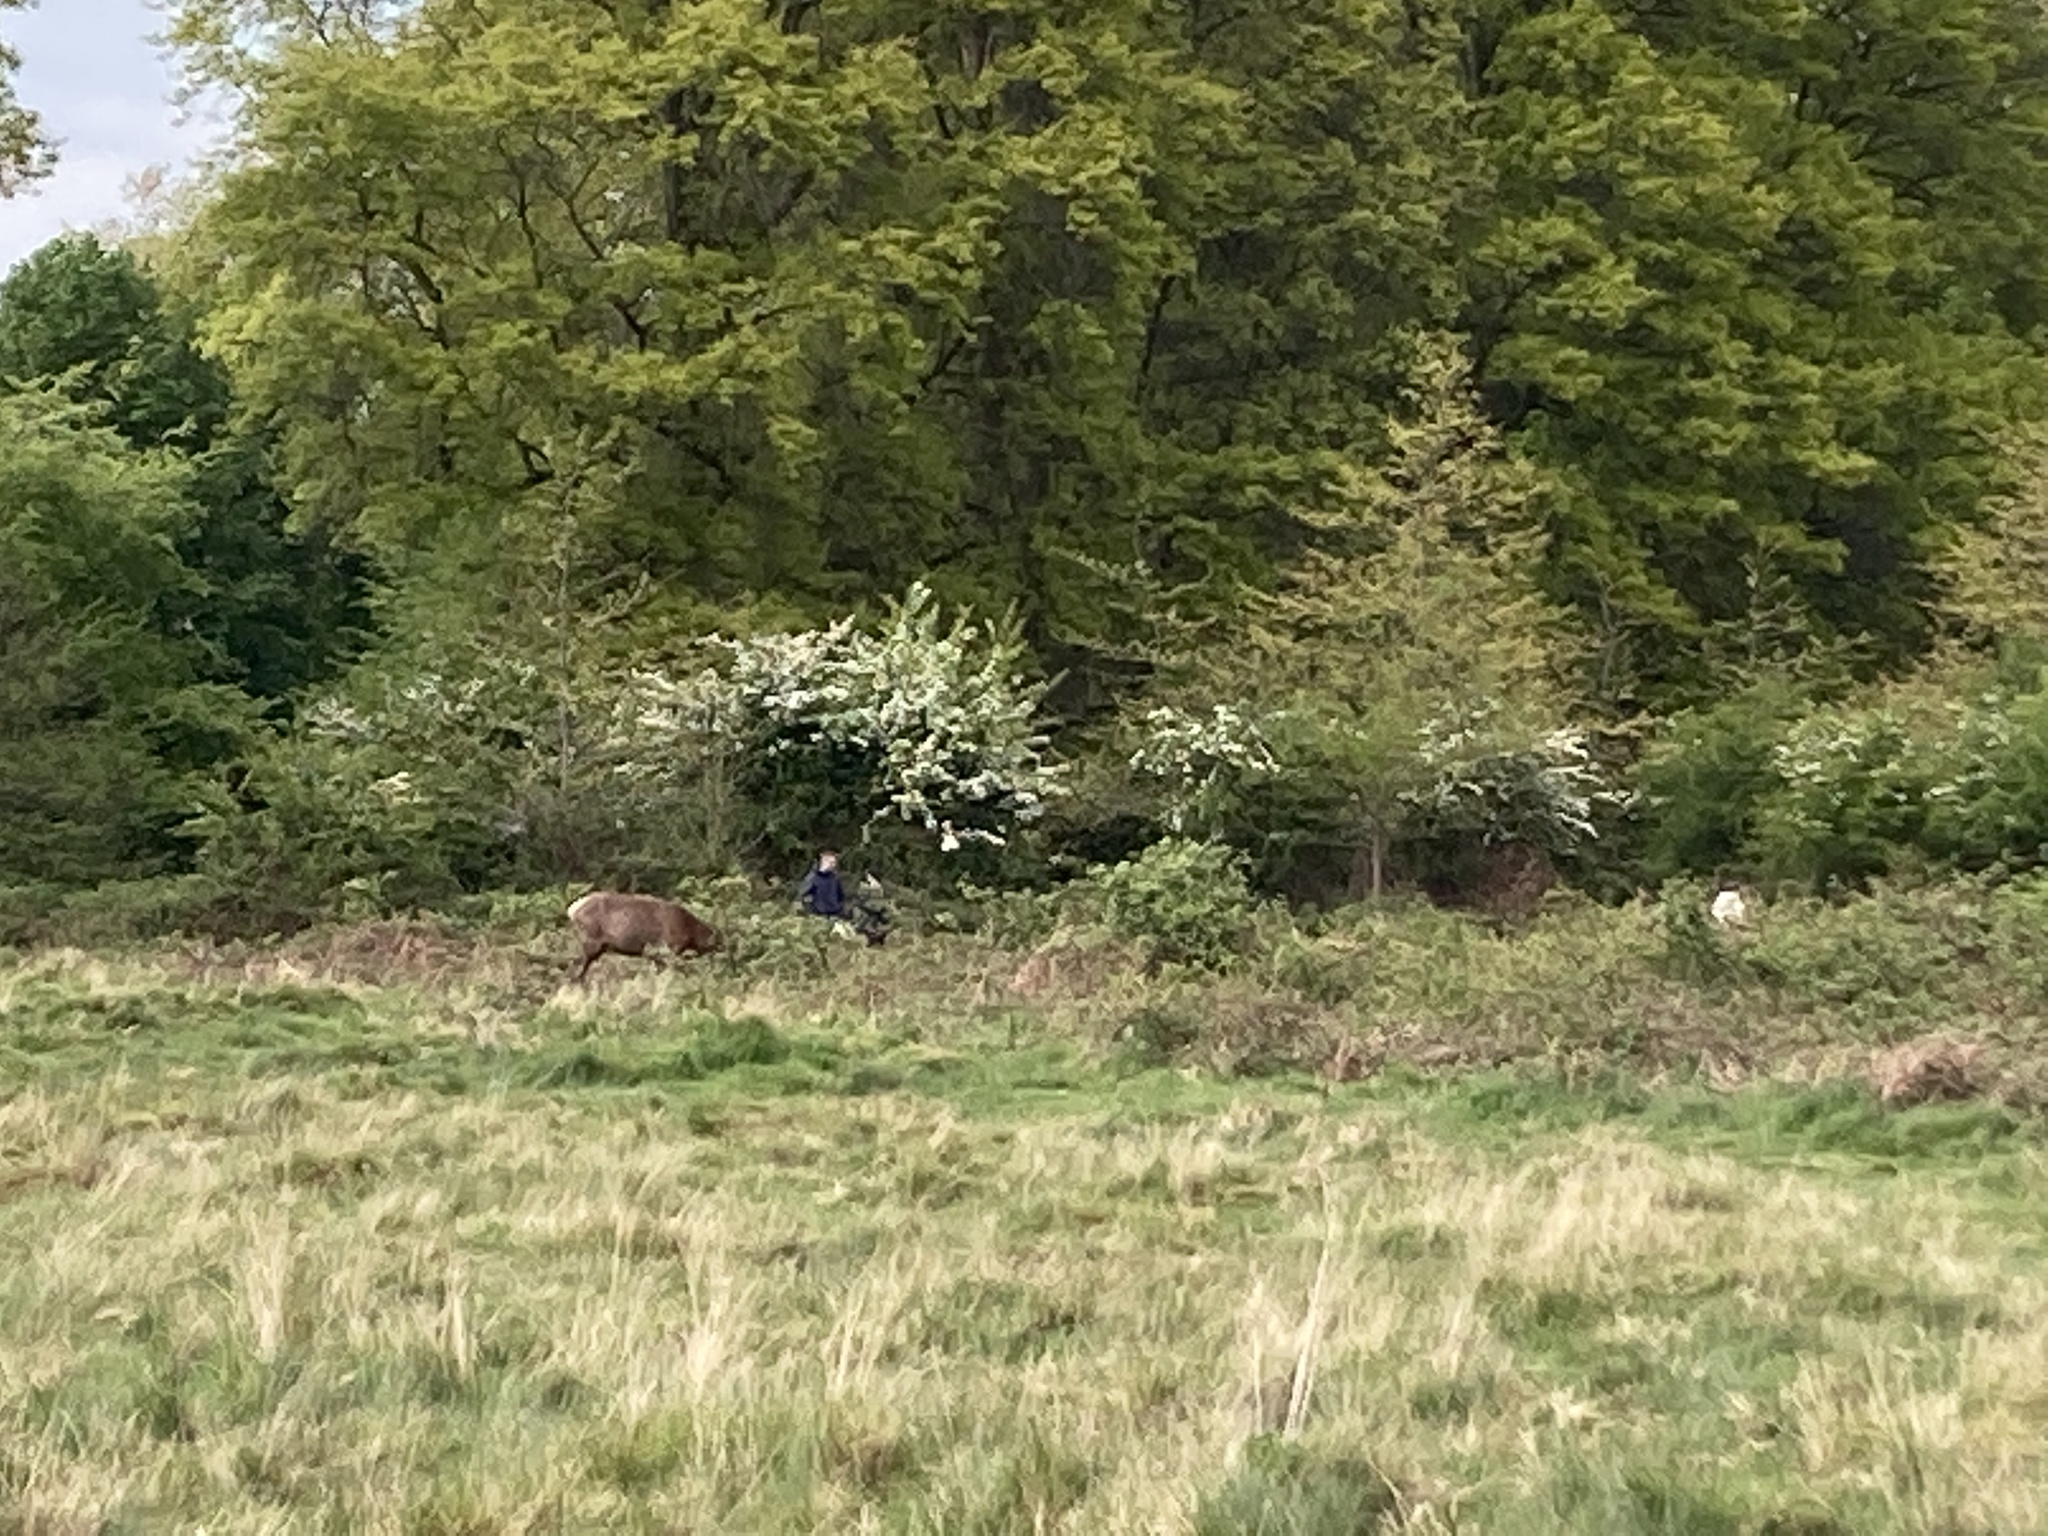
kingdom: Animalia
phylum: Chordata
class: Mammalia
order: Artiodactyla
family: Cervidae
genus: Cervus
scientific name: Cervus elaphus
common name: Red deer
